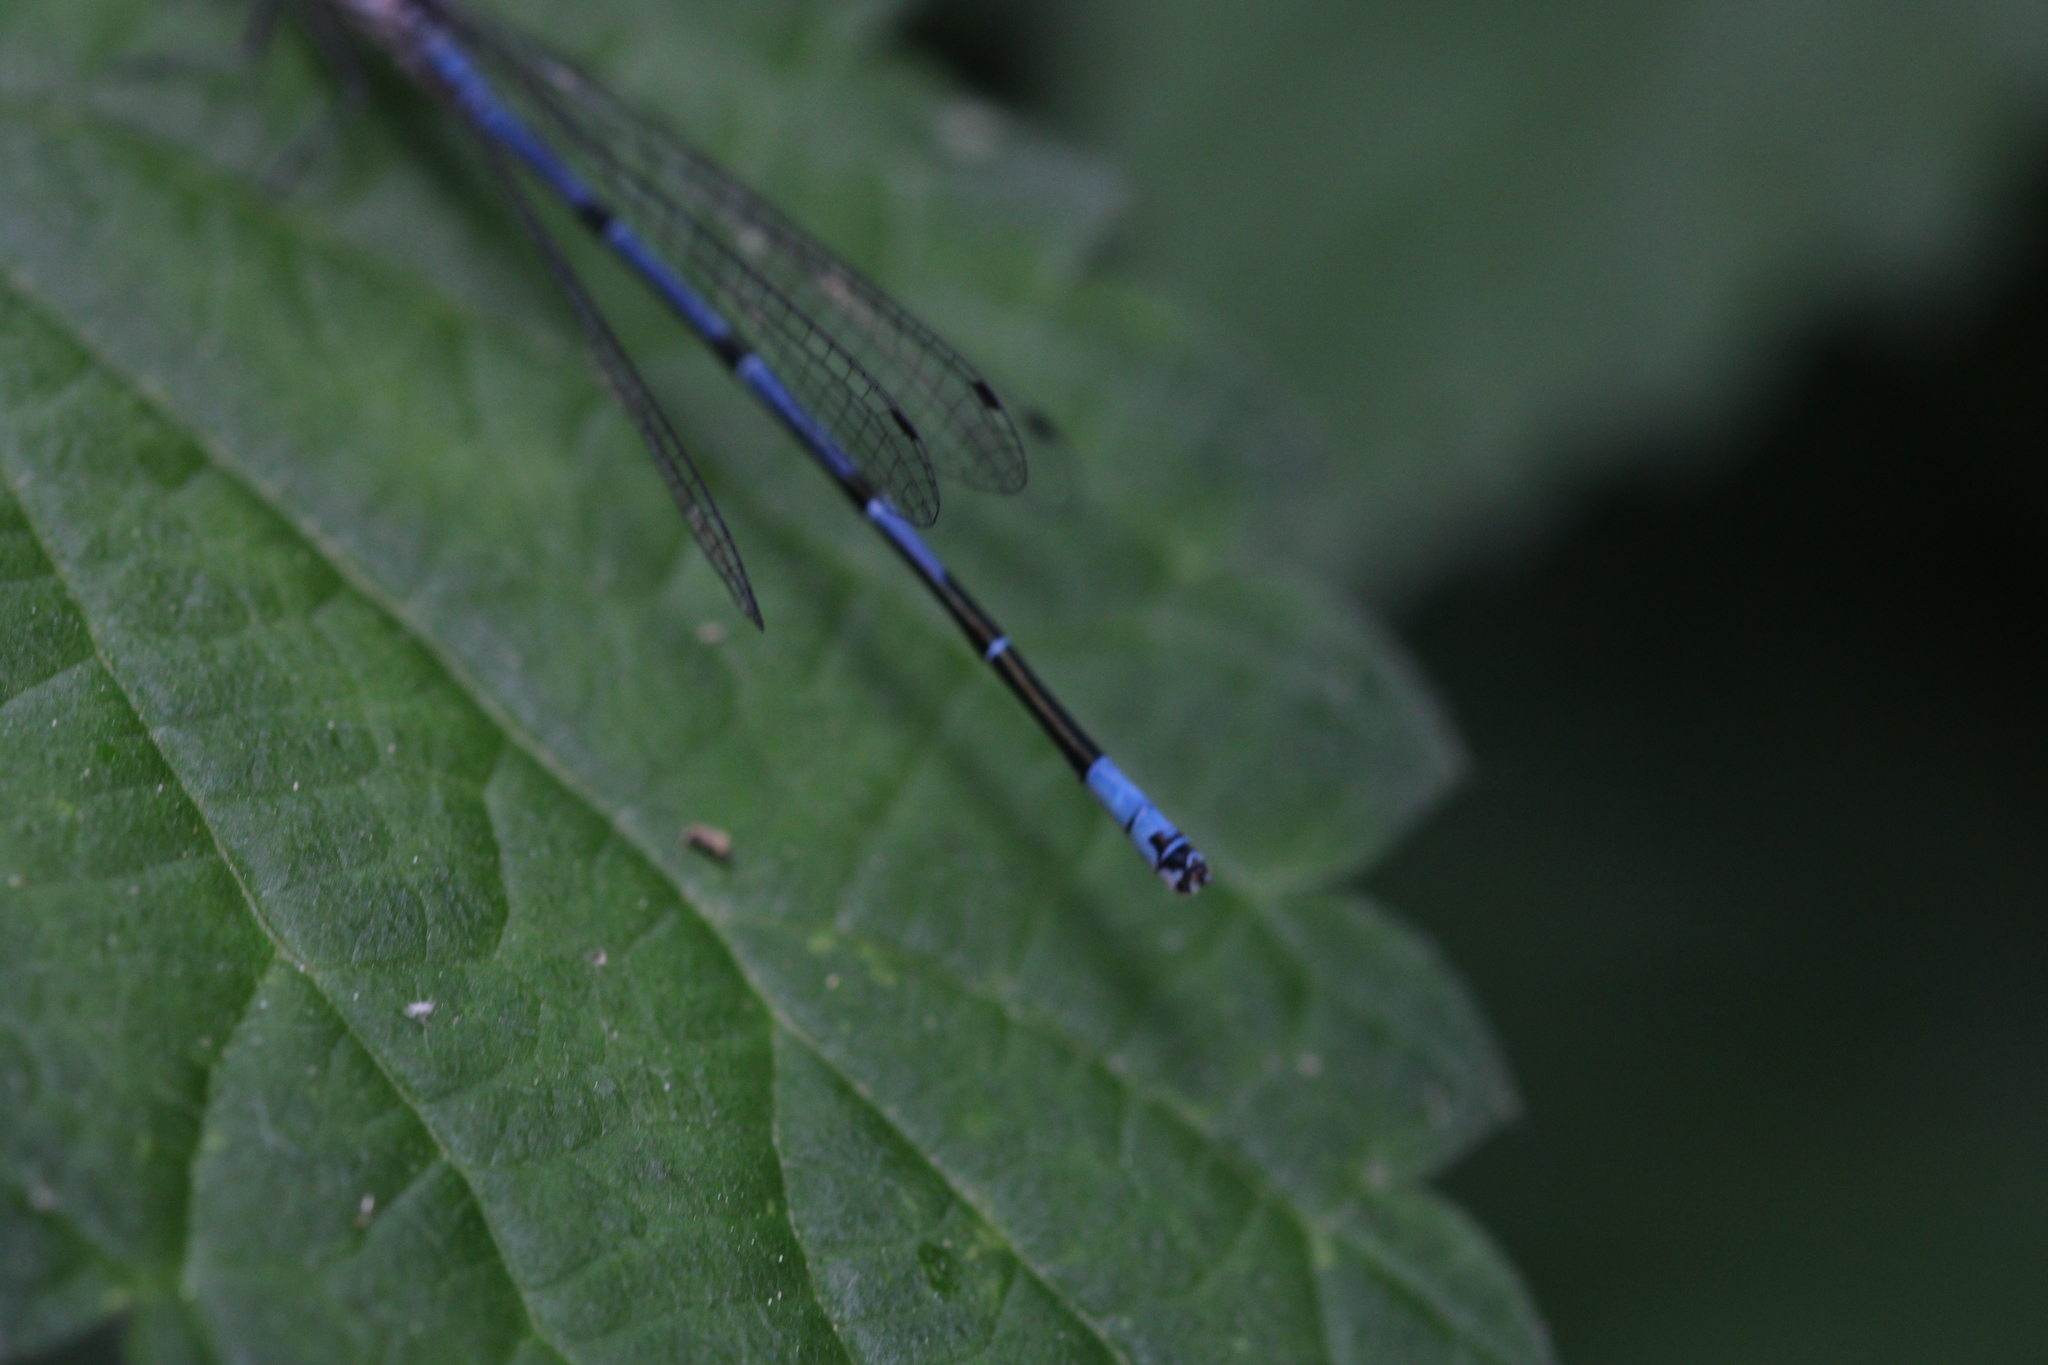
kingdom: Animalia
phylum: Arthropoda
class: Insecta
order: Odonata
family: Coenagrionidae
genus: Coenagrion
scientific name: Coenagrion puella
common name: Azure damselfly
